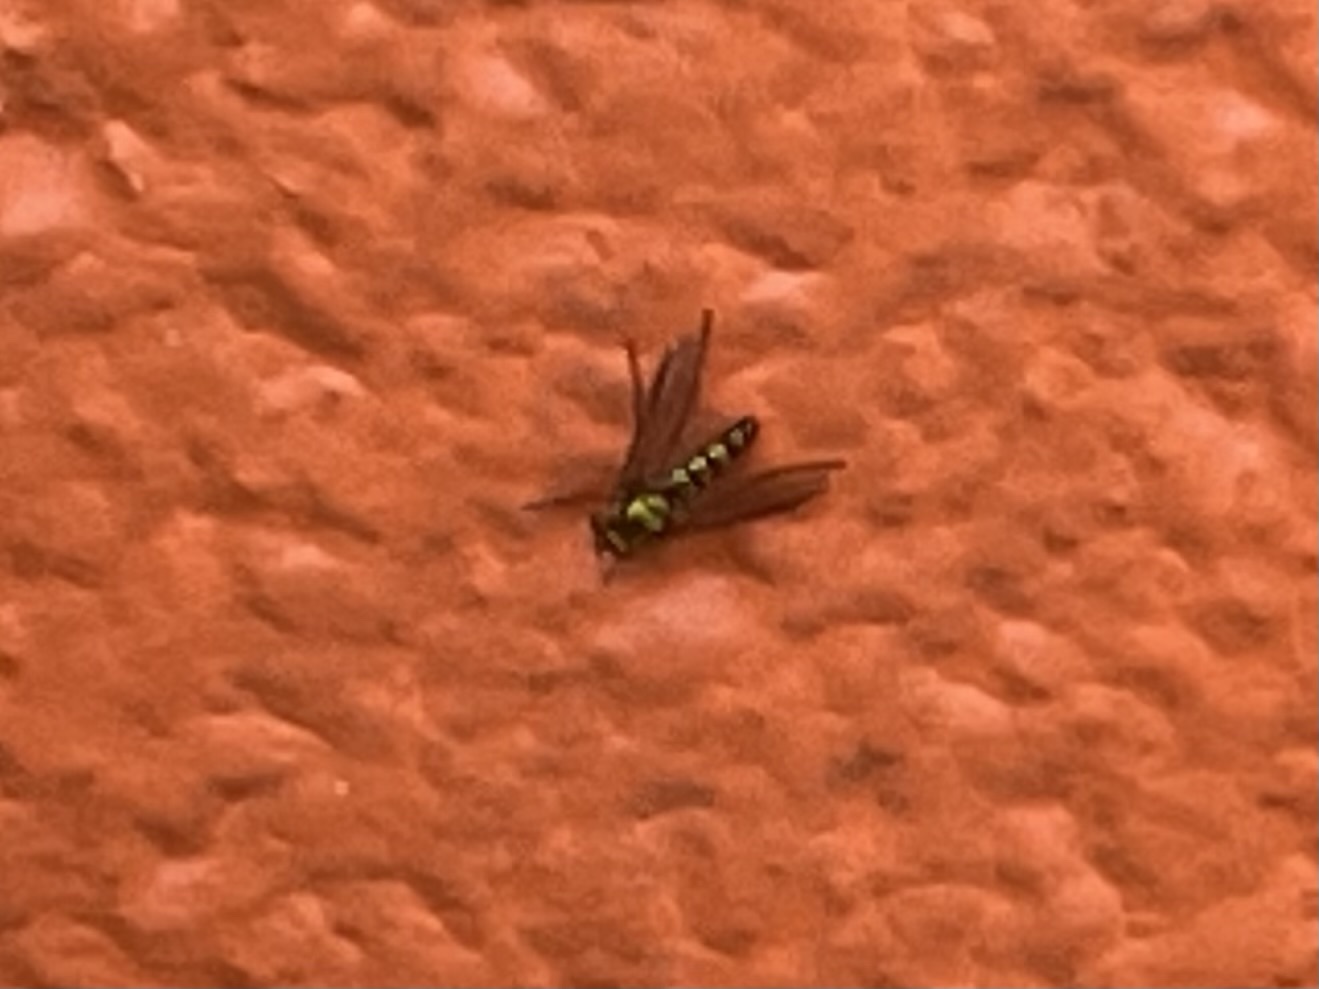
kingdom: Animalia
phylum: Arthropoda
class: Insecta
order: Diptera
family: Dolichopodidae
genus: Condylostylus
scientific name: Condylostylus longicornis
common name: Long-legged fly
